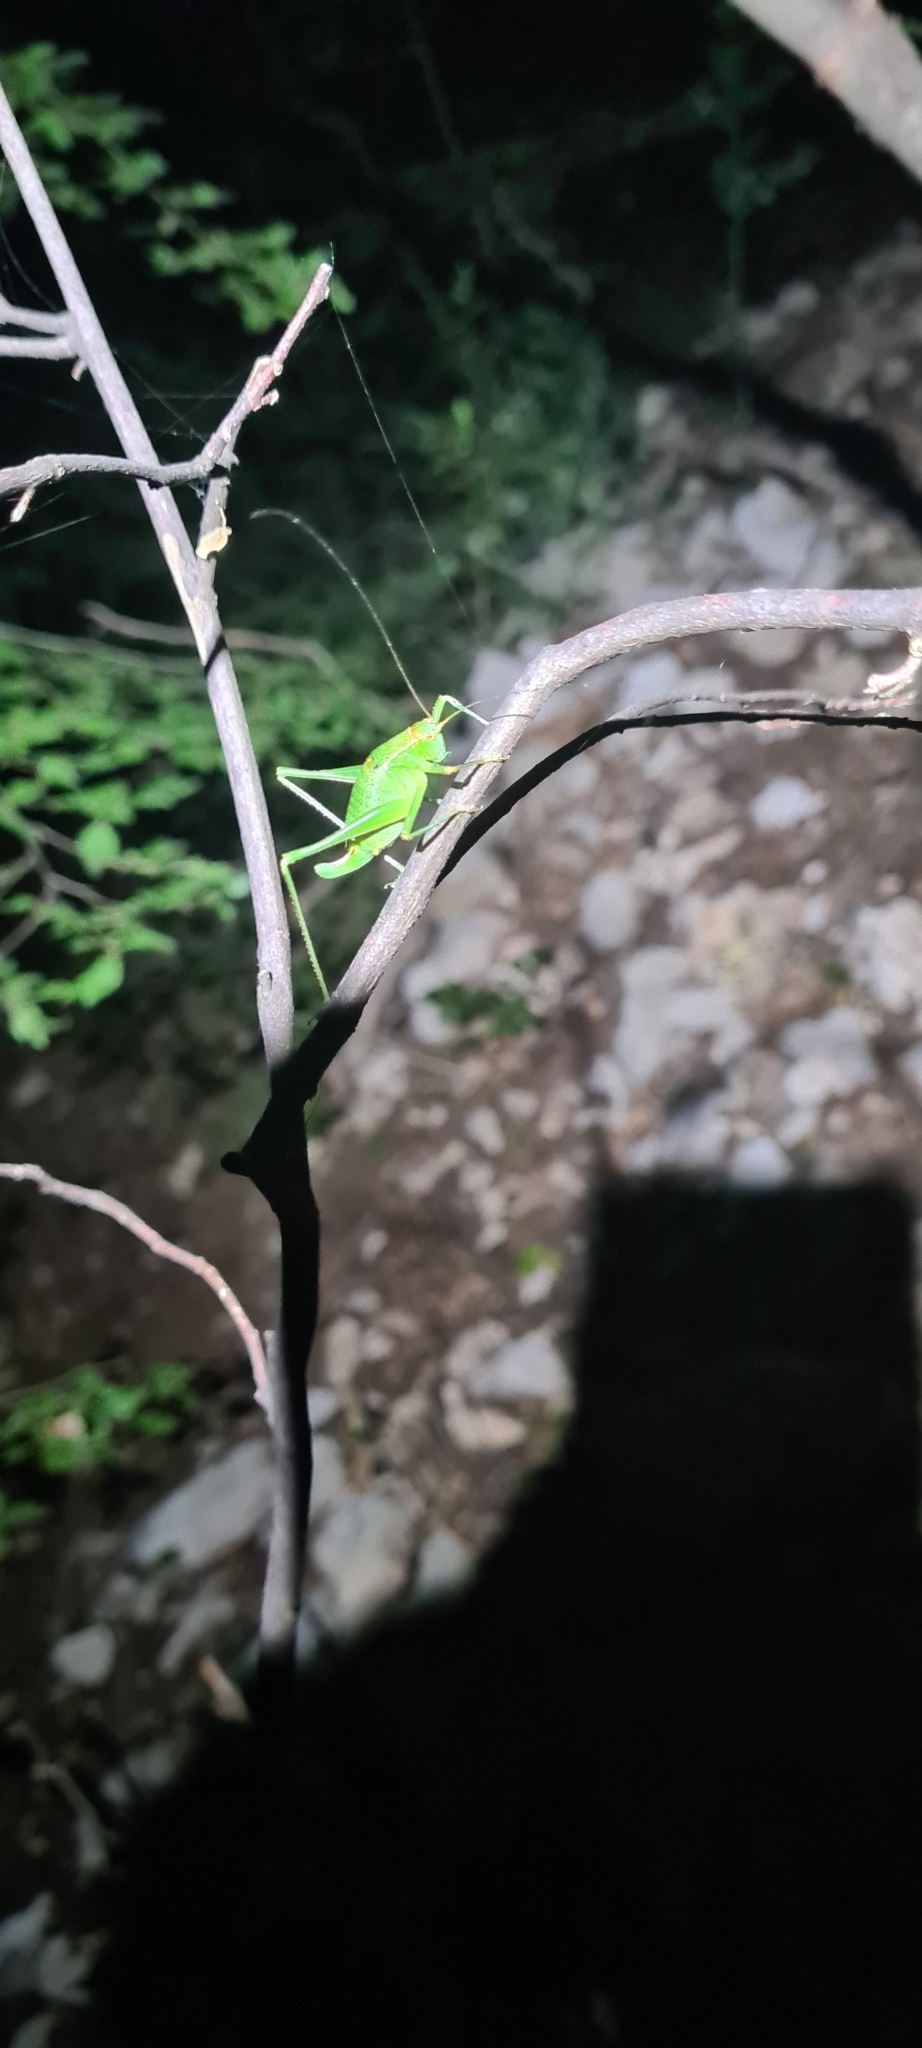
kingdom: Animalia
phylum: Arthropoda
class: Insecta
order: Orthoptera
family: Tettigoniidae
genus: Metaplastes
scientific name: Metaplastes pulchripennis
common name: Italian ornate bush-cricket
